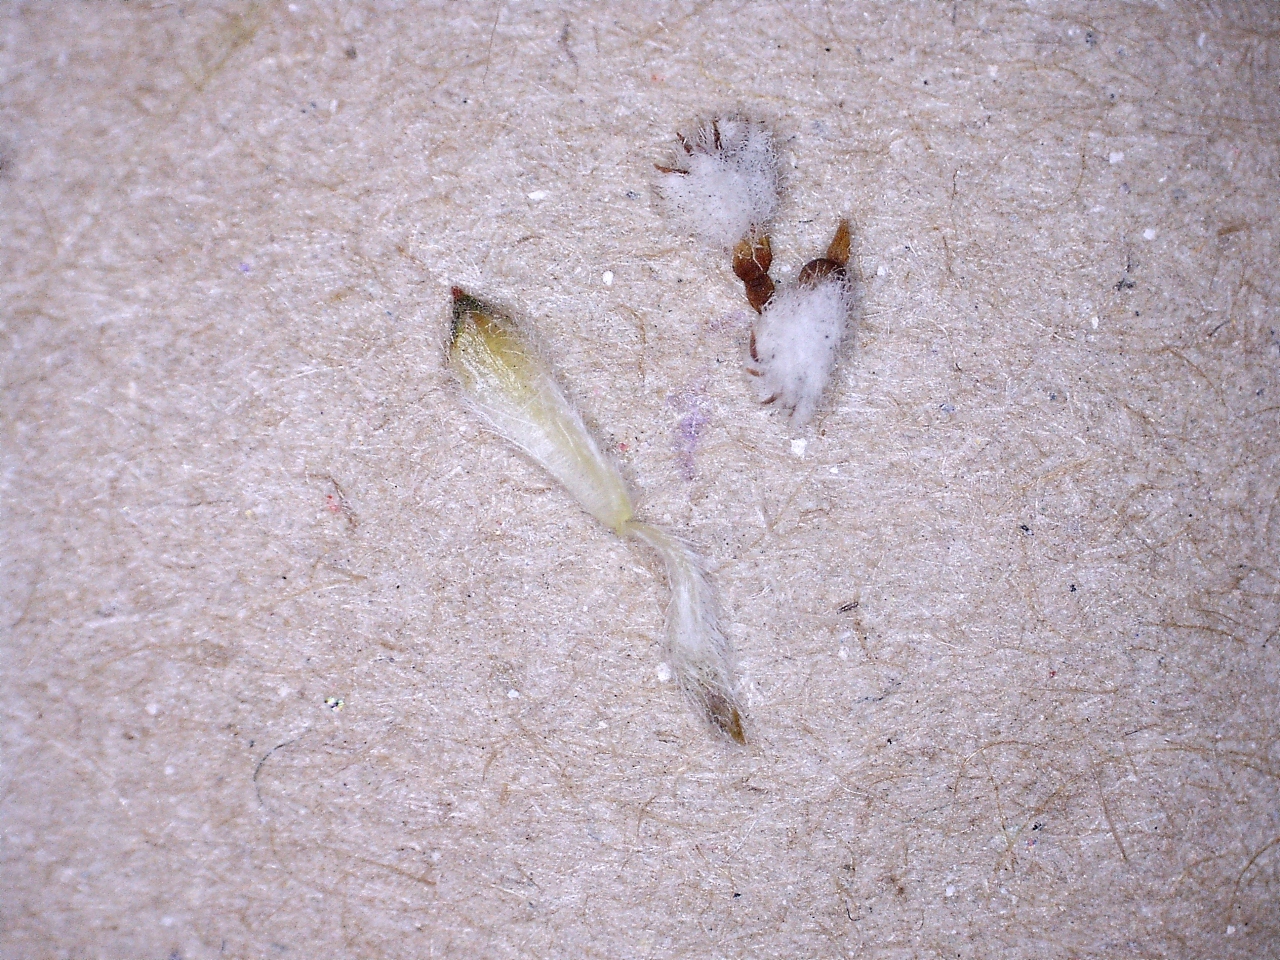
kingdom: Plantae
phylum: Tracheophyta
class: Magnoliopsida
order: Rosales
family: Rhamnaceae
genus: Phylica
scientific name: Phylica virgata
